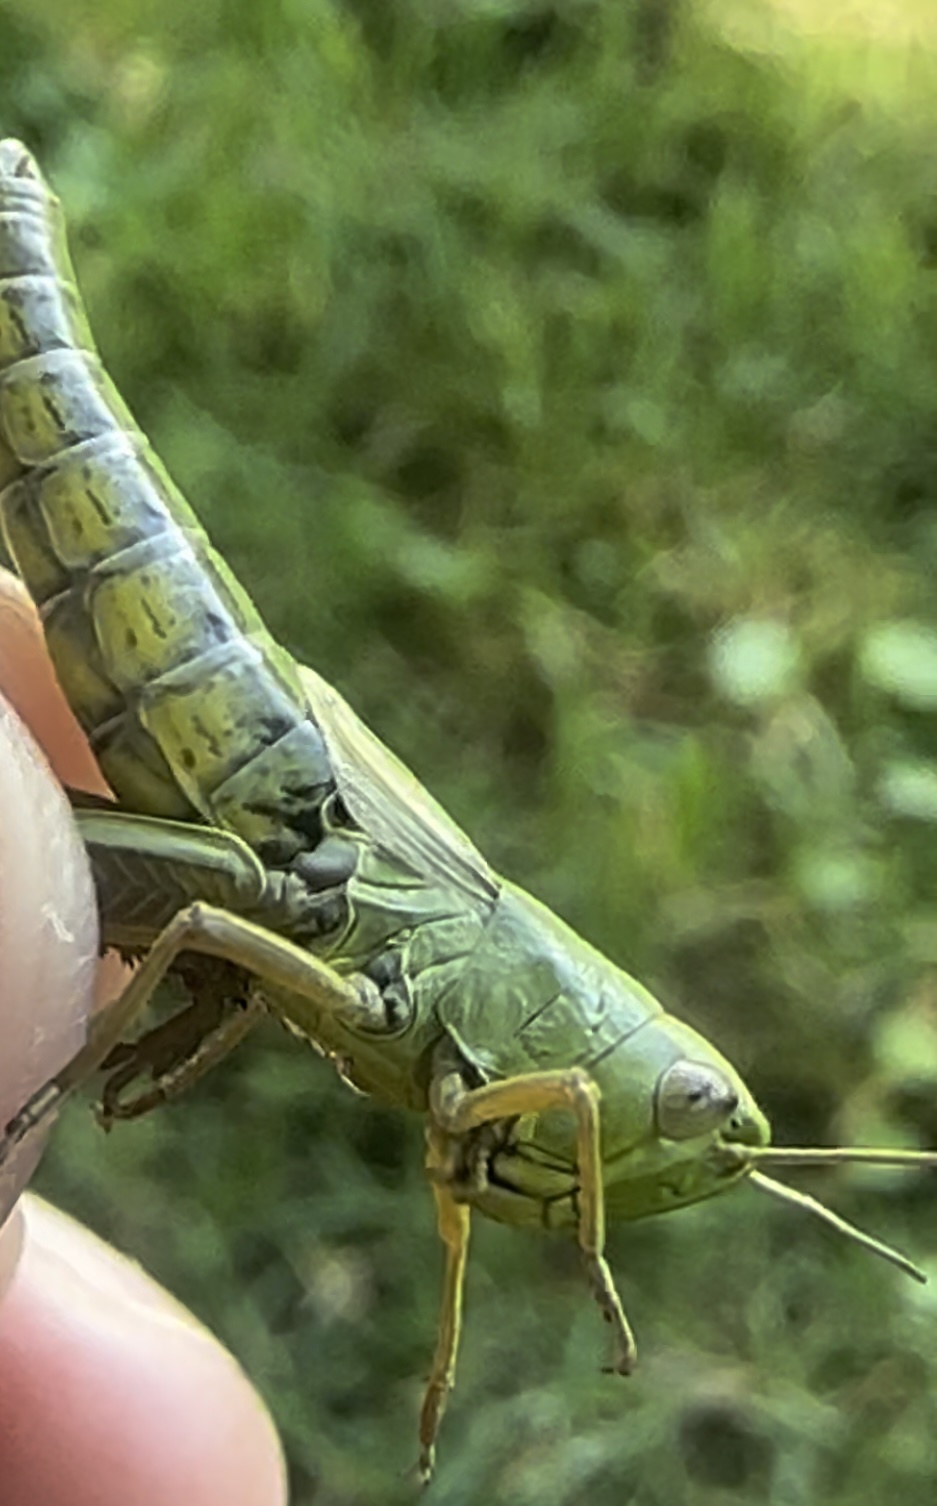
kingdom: Animalia
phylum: Arthropoda
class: Insecta
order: Orthoptera
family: Acrididae
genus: Pseudochorthippus
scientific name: Pseudochorthippus parallelus
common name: Meadow grasshopper
